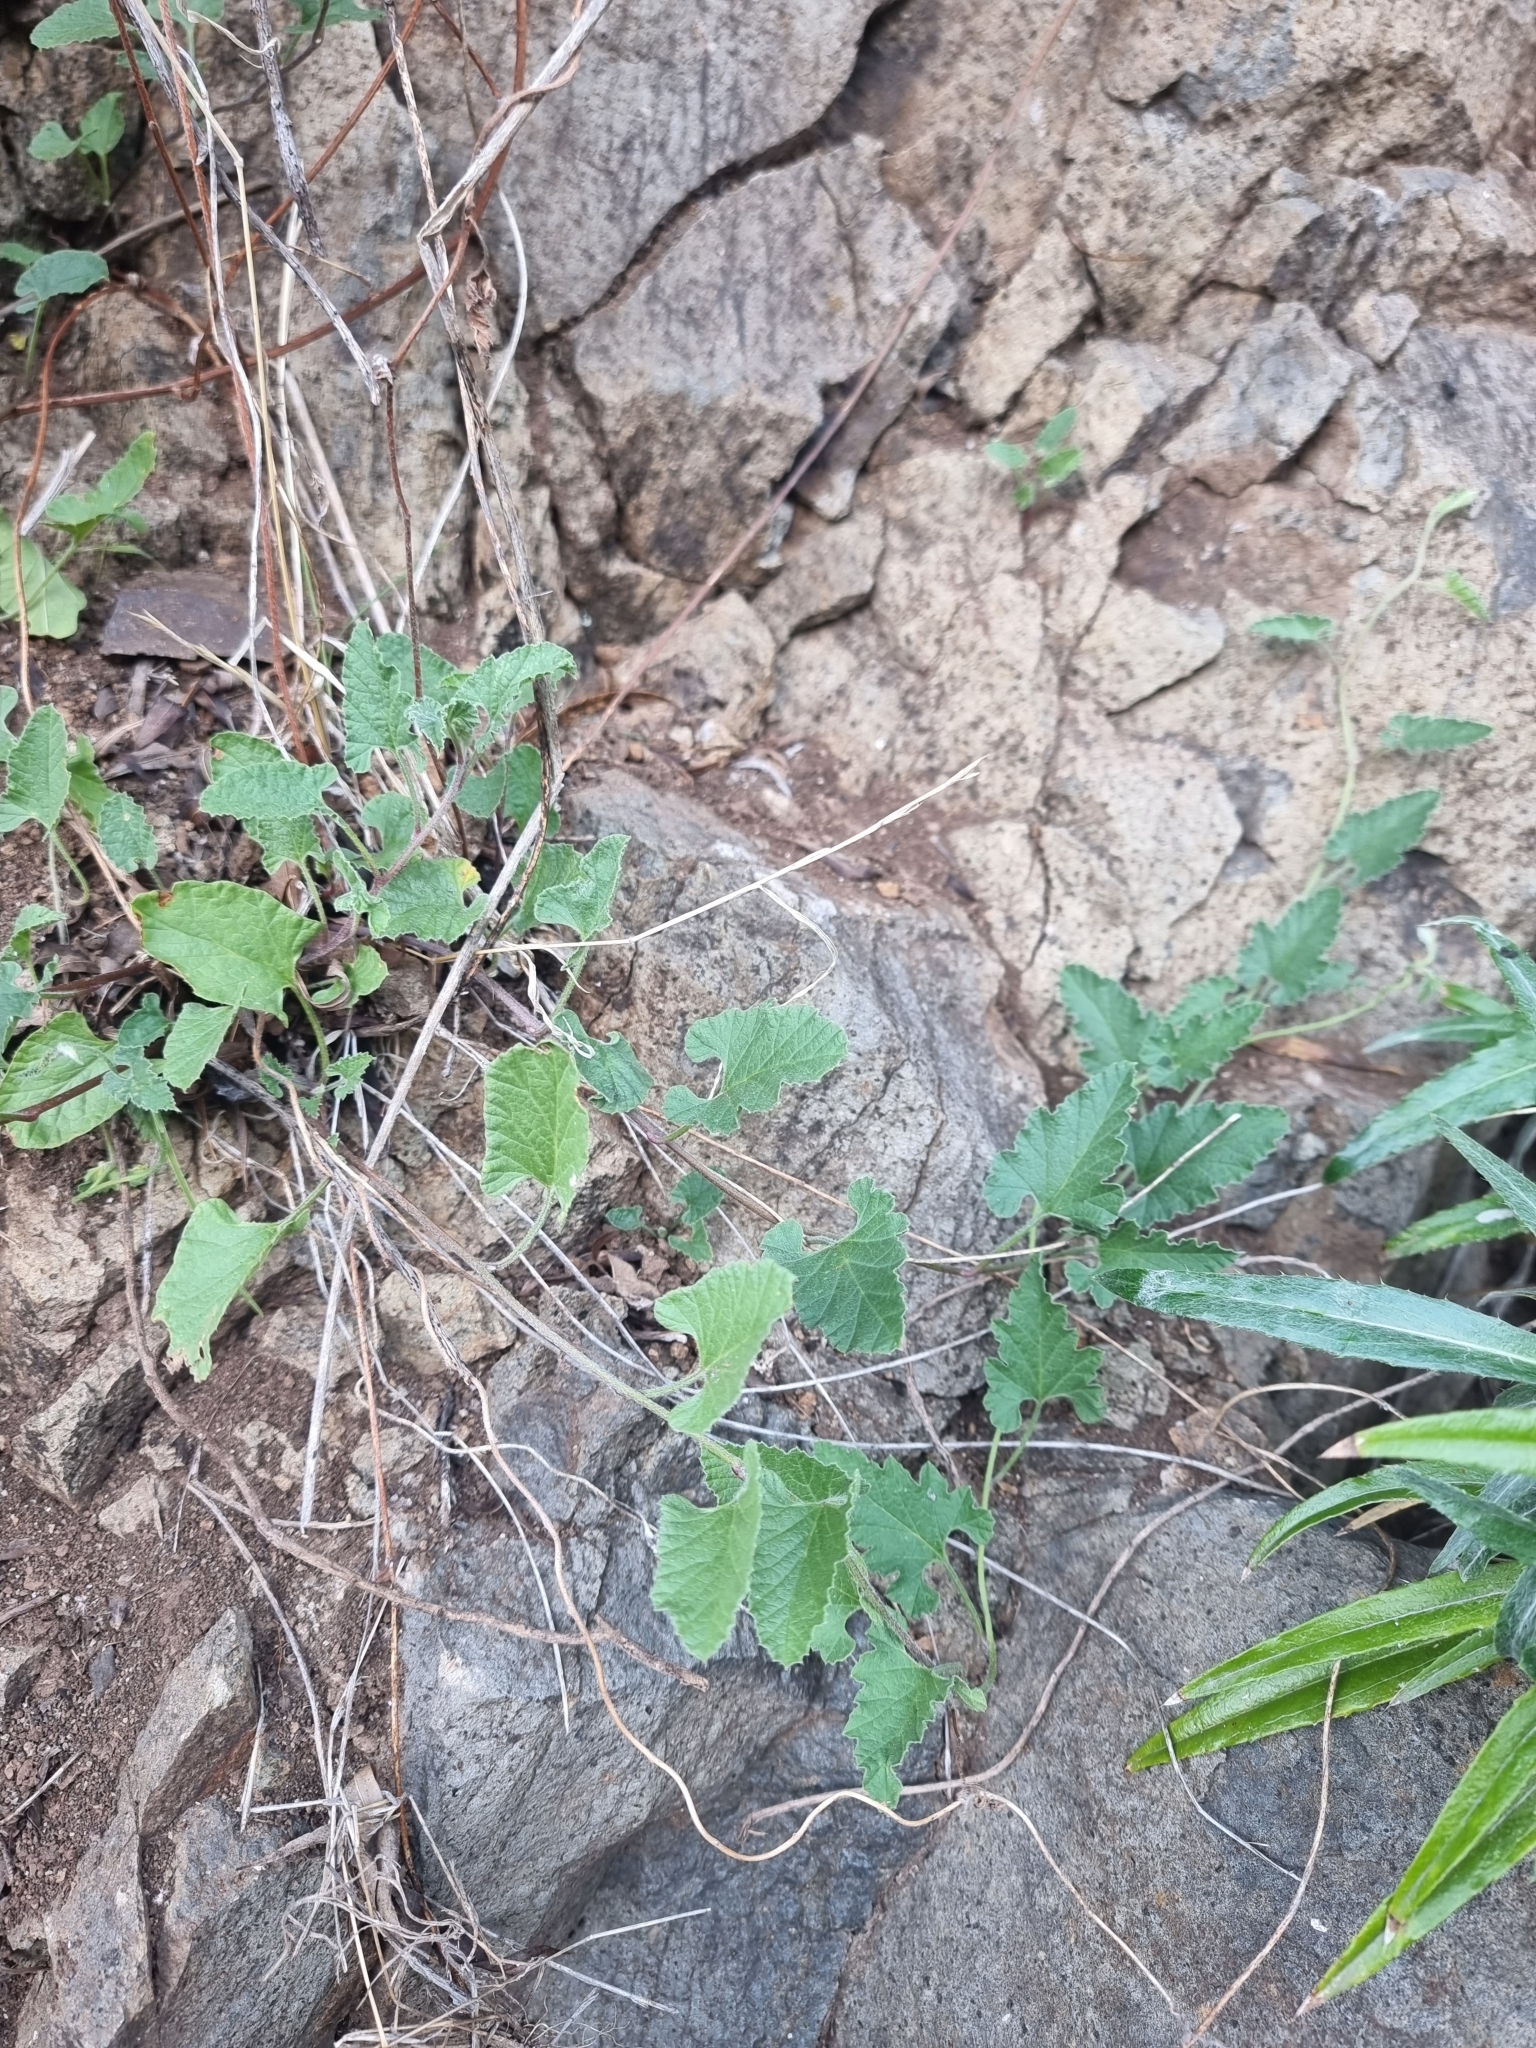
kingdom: Plantae
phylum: Tracheophyta
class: Magnoliopsida
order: Solanales
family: Convolvulaceae
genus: Convolvulus
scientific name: Convolvulus althaeoides
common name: Mallow bindweed
